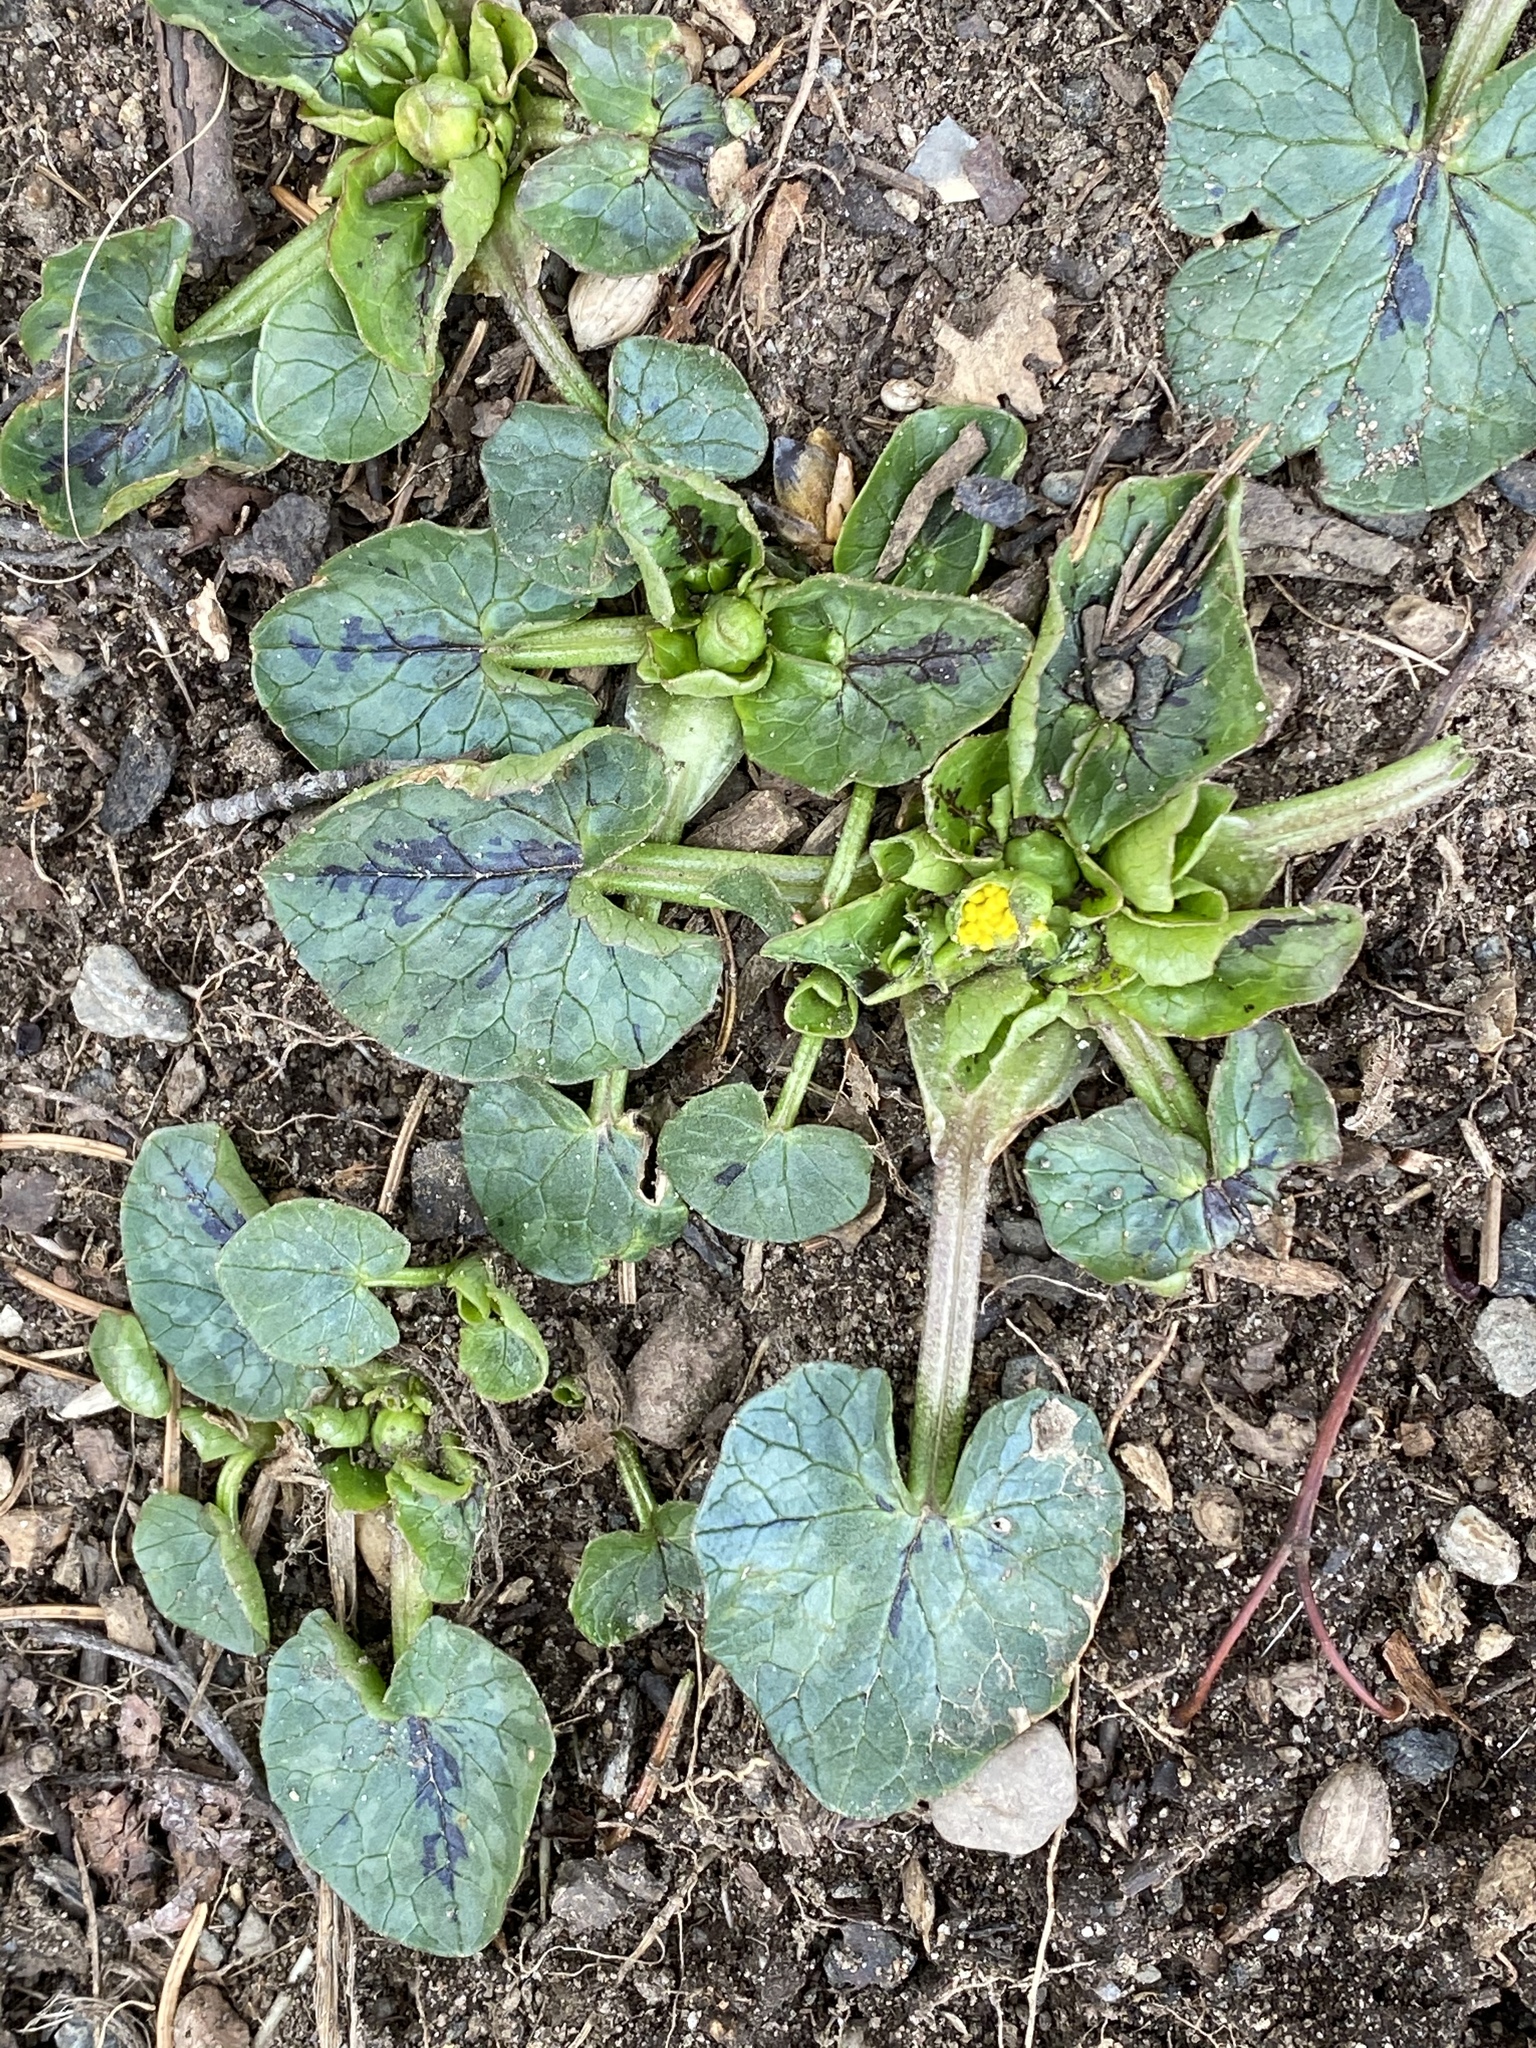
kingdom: Plantae
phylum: Tracheophyta
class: Magnoliopsida
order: Ranunculales
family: Ranunculaceae
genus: Ficaria
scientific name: Ficaria verna
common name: Lesser celandine
